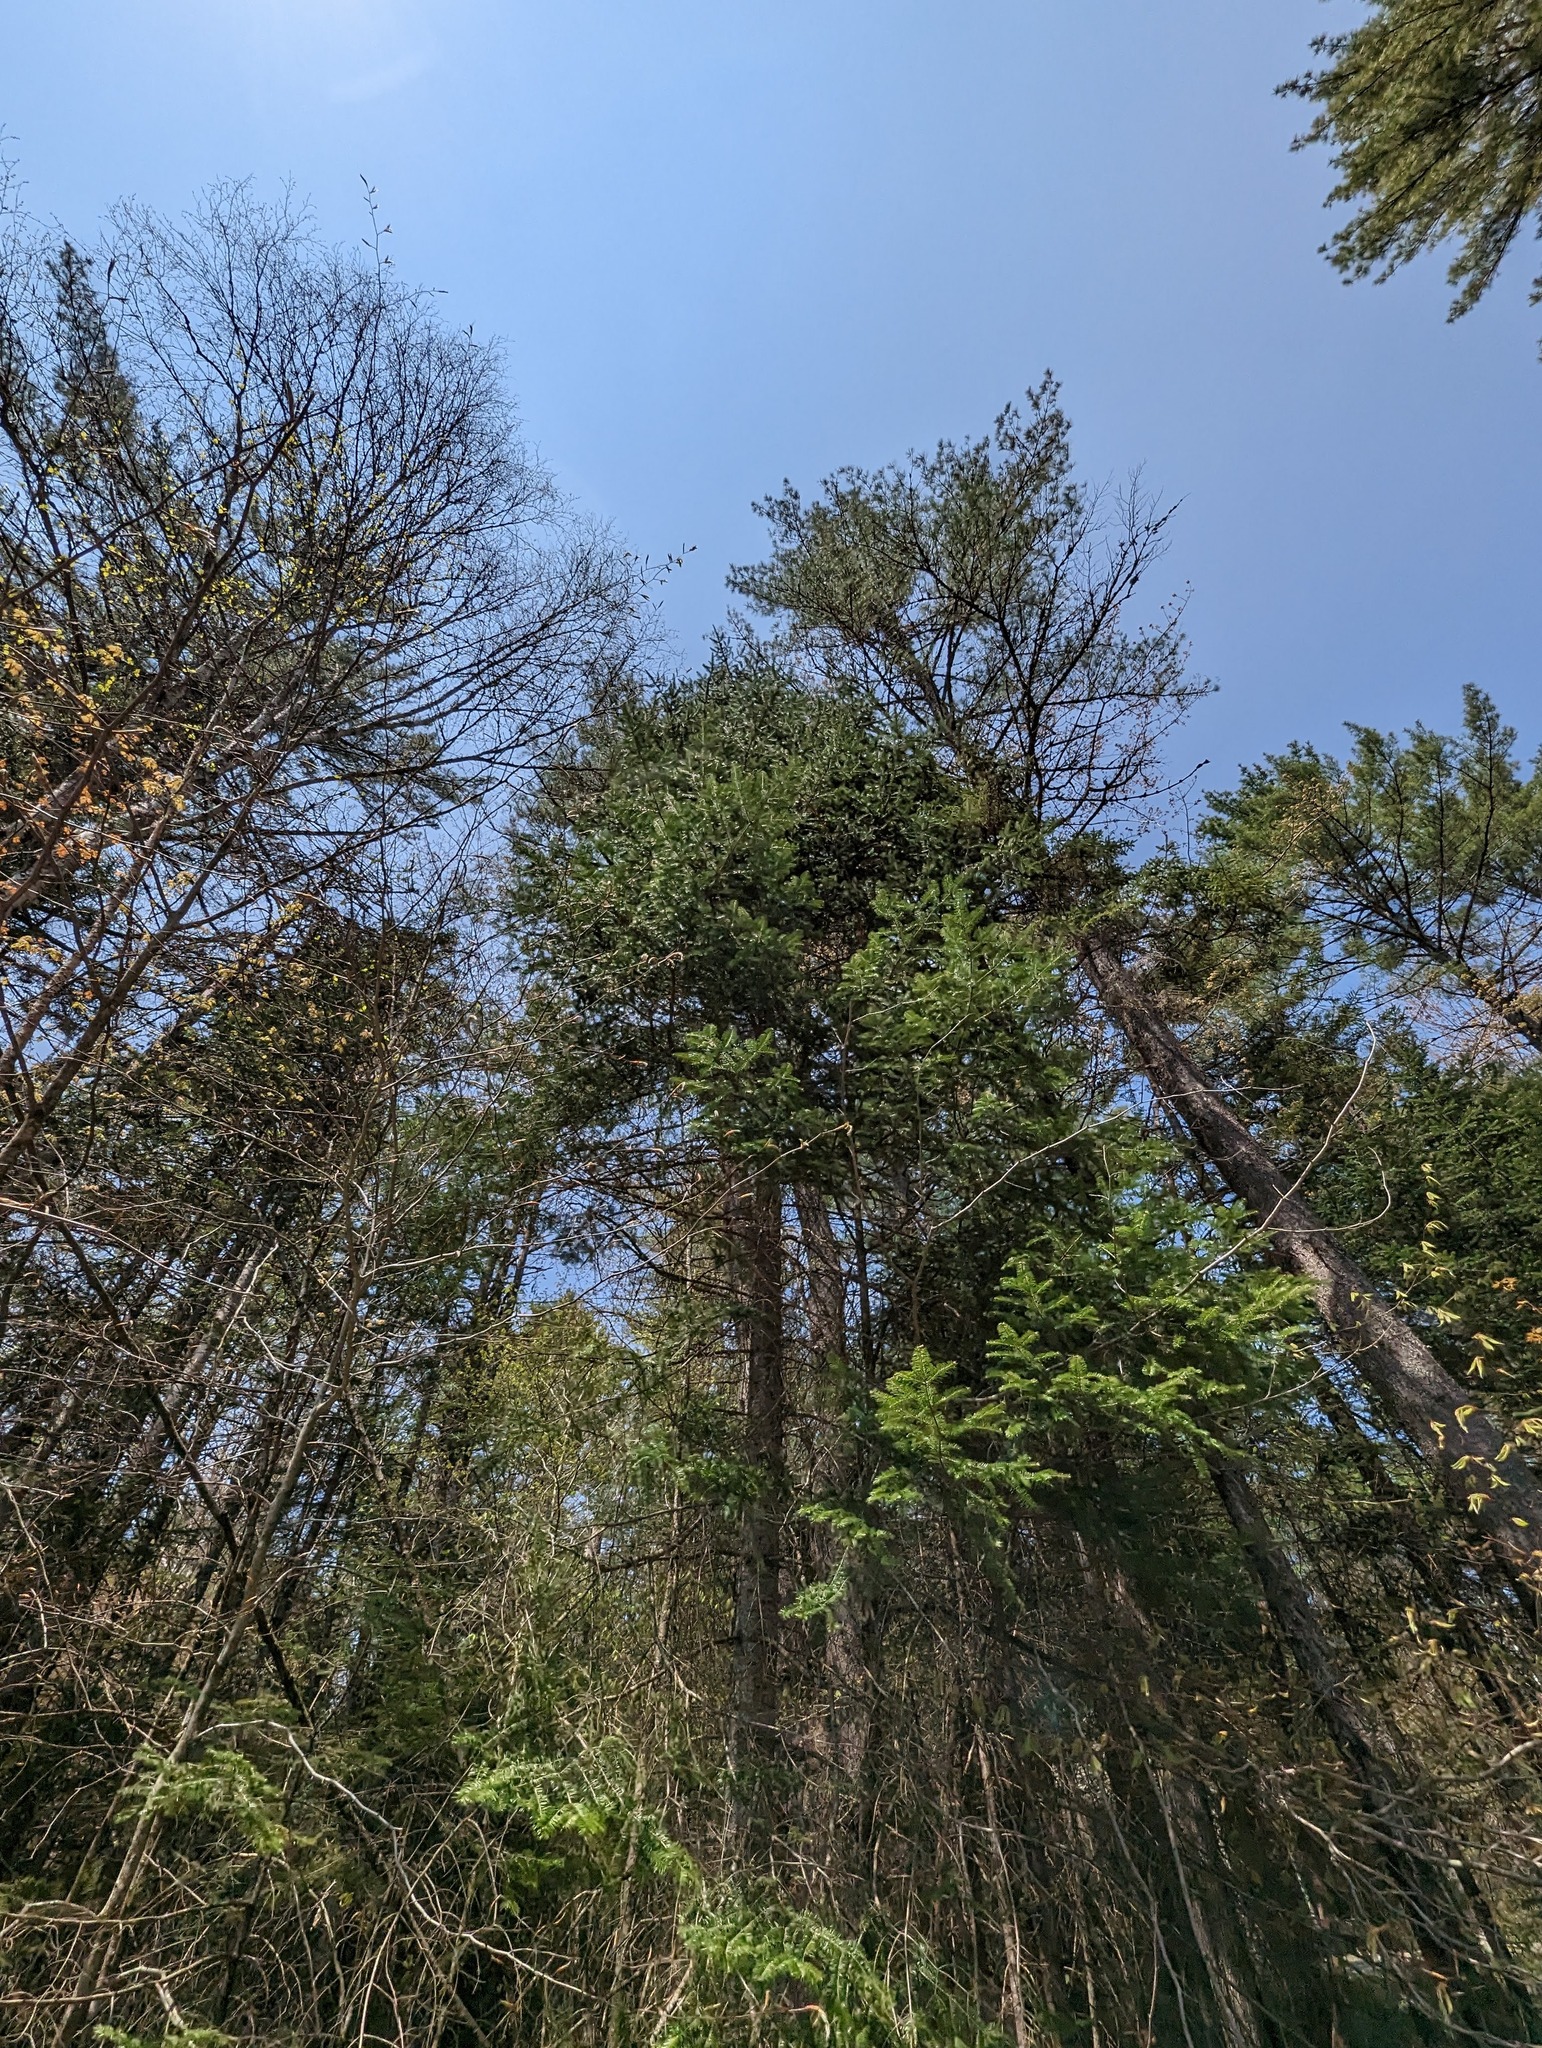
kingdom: Plantae
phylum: Tracheophyta
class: Pinopsida
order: Pinales
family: Pinaceae
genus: Abies
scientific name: Abies balsamea
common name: Balsam fir
